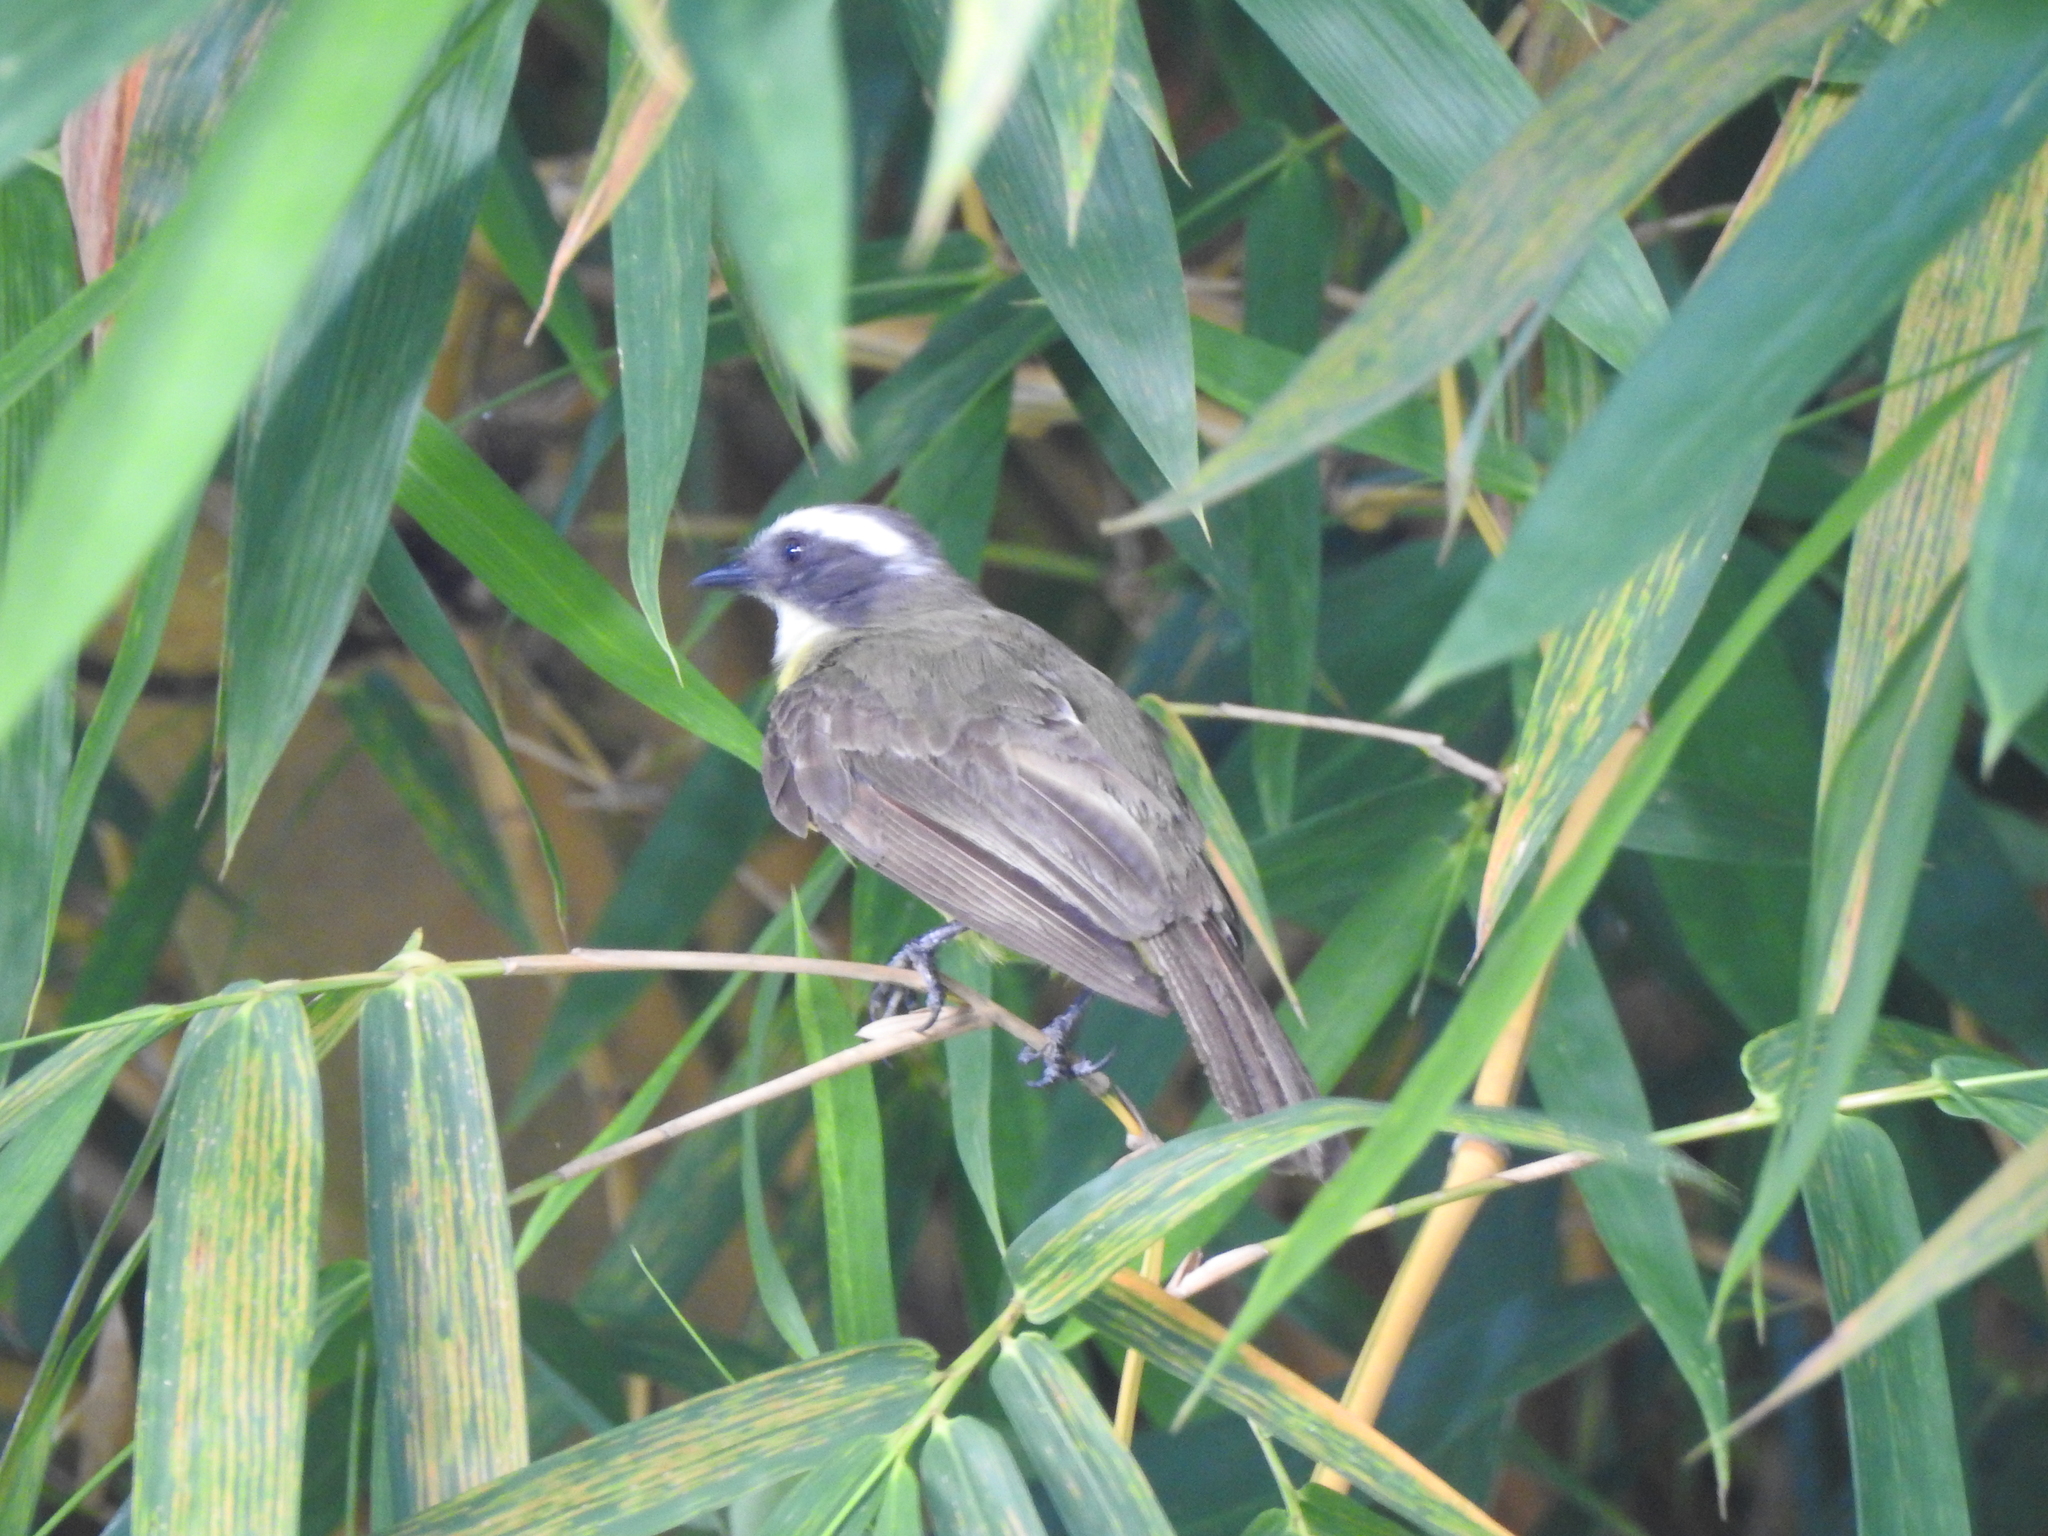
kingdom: Animalia
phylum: Chordata
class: Aves
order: Passeriformes
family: Tyrannidae
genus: Myiozetetes
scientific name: Myiozetetes similis
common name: Social flycatcher
